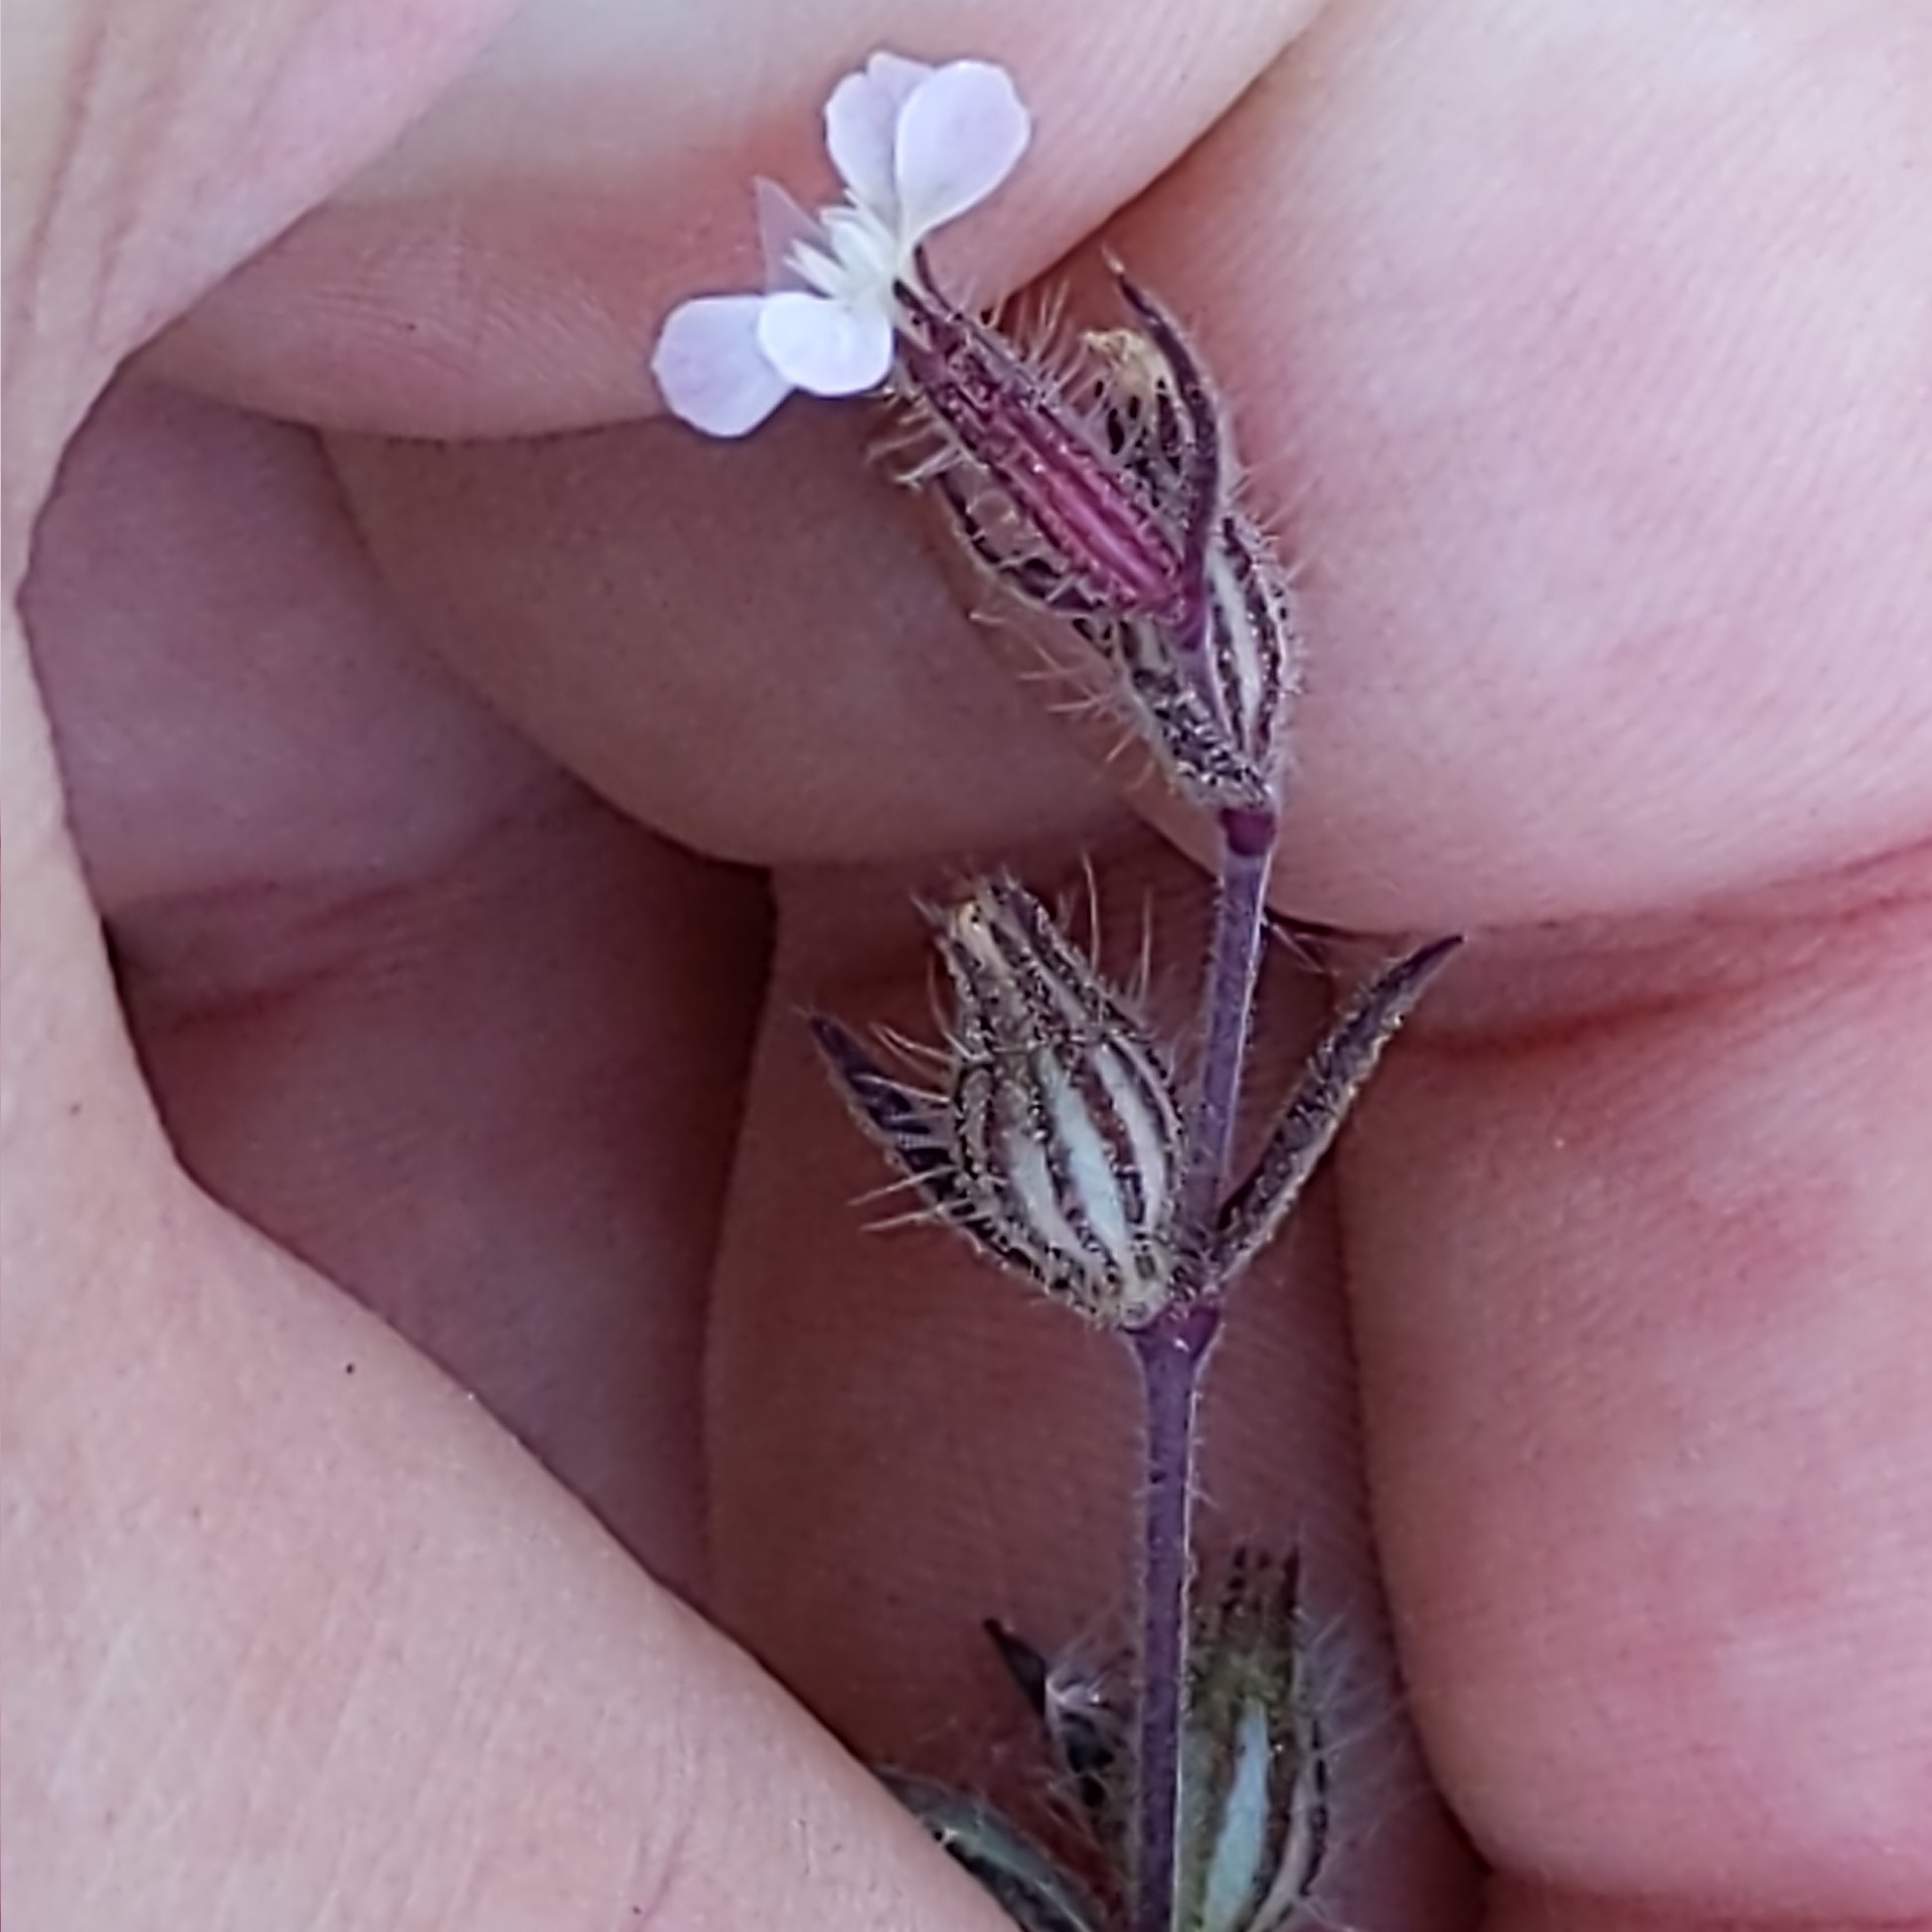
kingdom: Plantae
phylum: Tracheophyta
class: Magnoliopsida
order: Caryophyllales
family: Caryophyllaceae
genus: Silene
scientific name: Silene gallica
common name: Small-flowered catchfly
